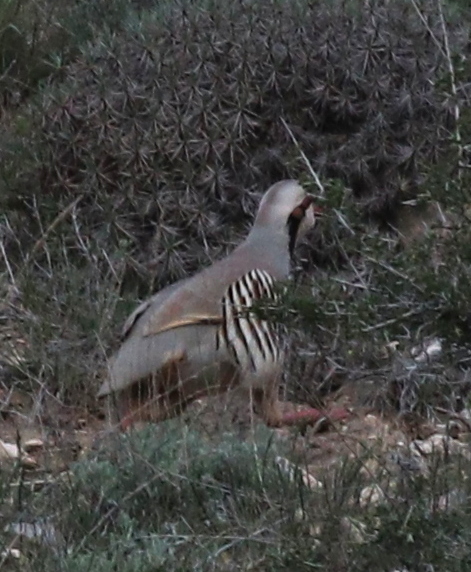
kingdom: Animalia
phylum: Chordata
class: Aves
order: Galliformes
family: Phasianidae
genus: Alectoris
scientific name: Alectoris chukar
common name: Chukar
